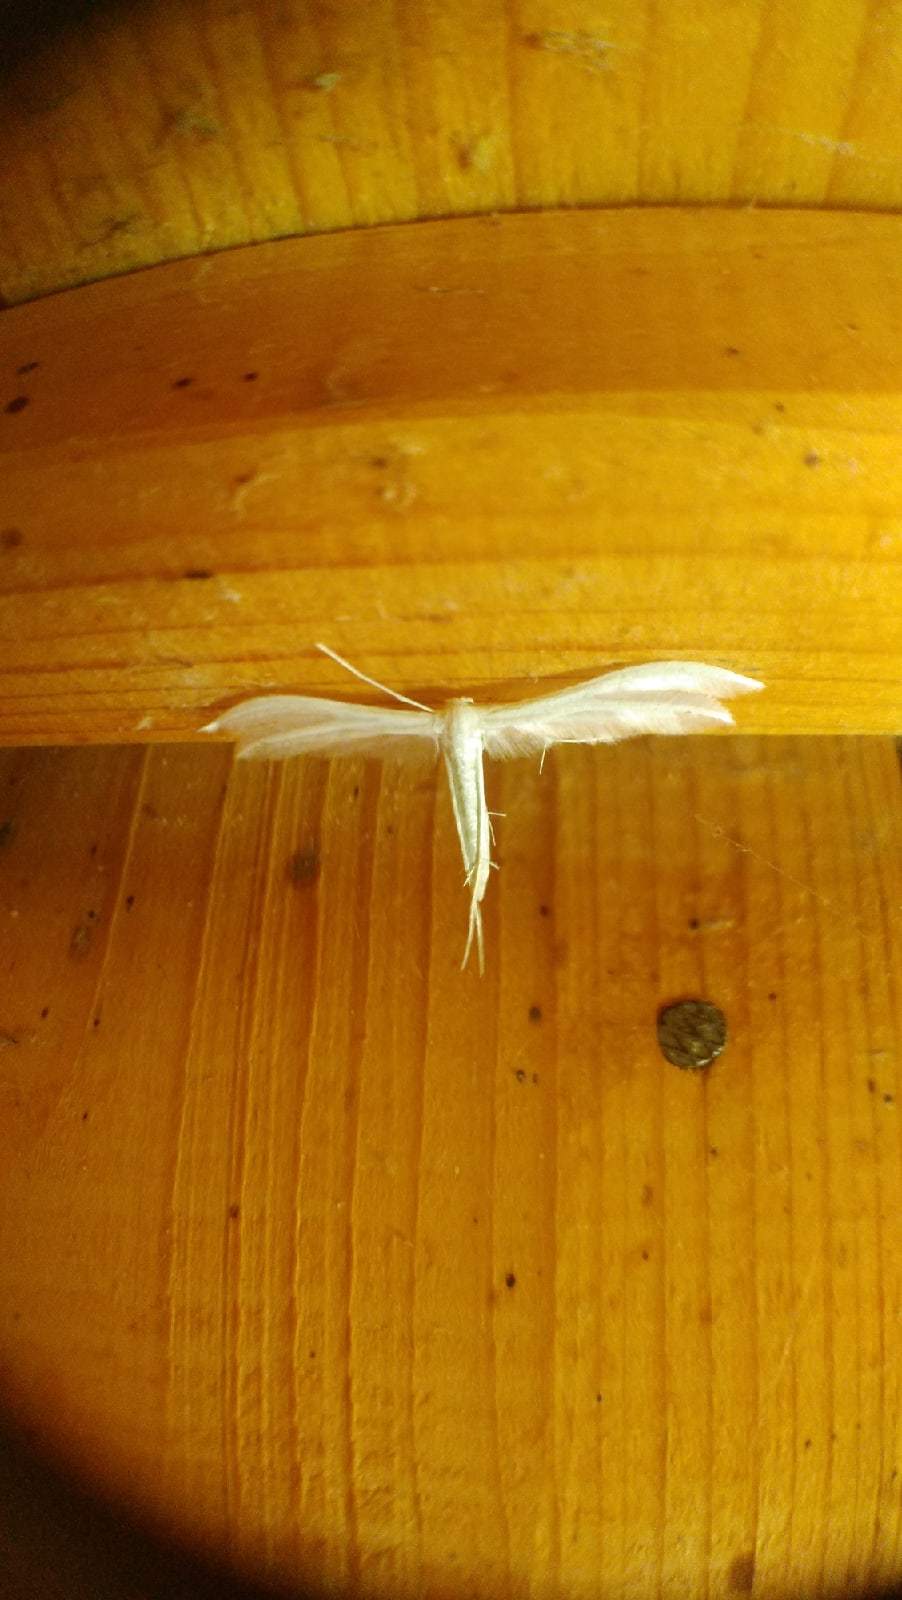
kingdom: Animalia
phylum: Arthropoda
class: Insecta
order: Lepidoptera
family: Pterophoridae
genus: Pterophorus
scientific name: Pterophorus pentadactyla
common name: White plume moth
